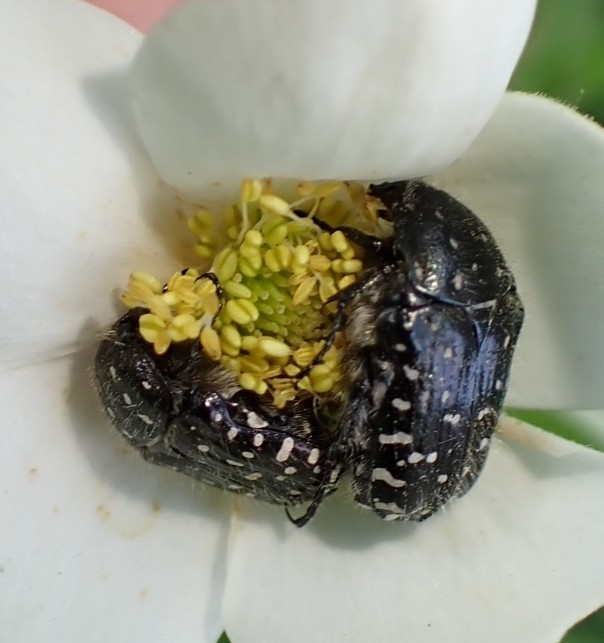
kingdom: Animalia
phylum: Arthropoda
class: Insecta
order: Coleoptera
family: Scarabaeidae
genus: Oxythyrea
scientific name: Oxythyrea funesta
